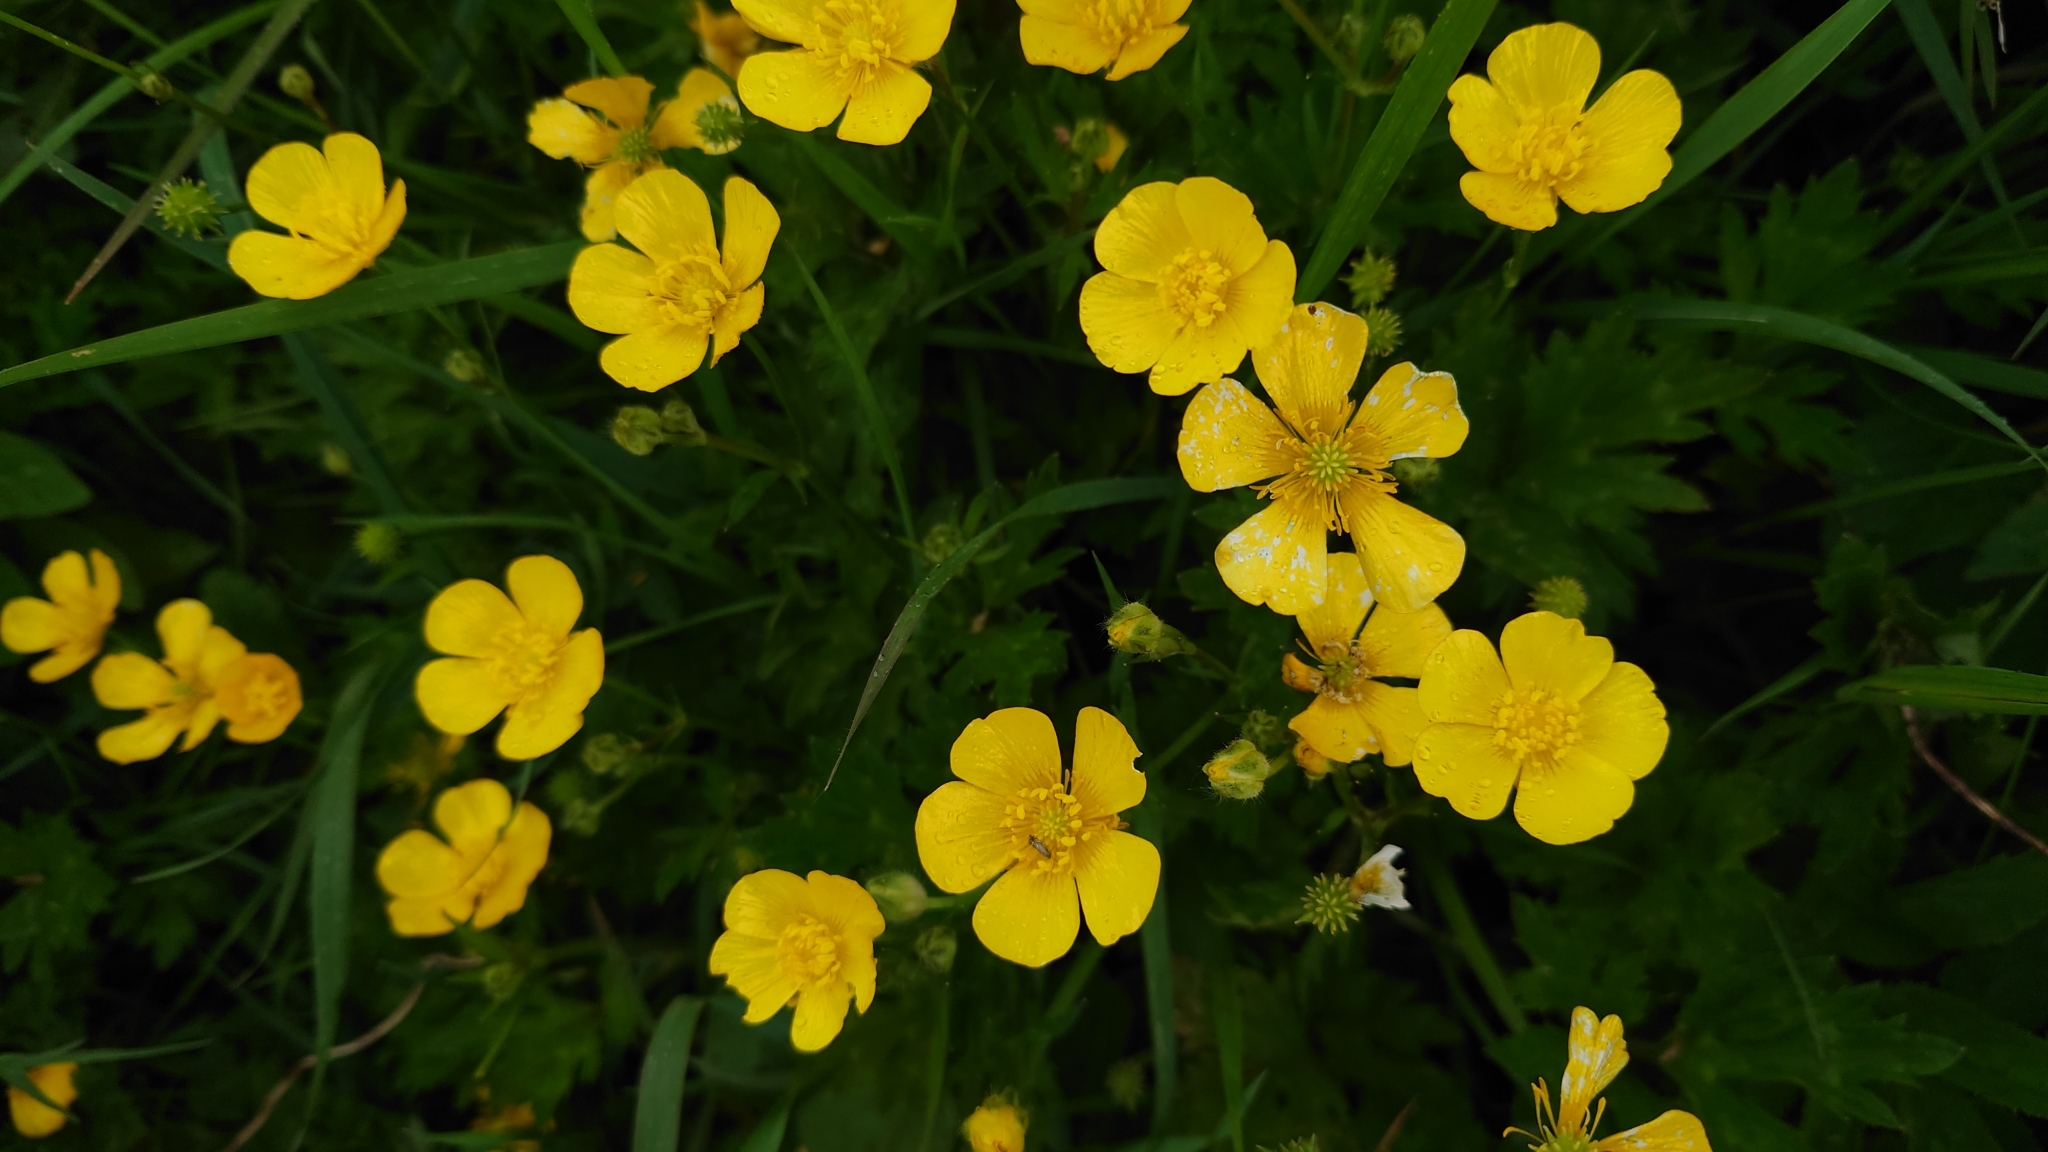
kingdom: Plantae
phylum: Tracheophyta
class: Magnoliopsida
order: Ranunculales
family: Ranunculaceae
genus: Ranunculus
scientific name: Ranunculus acris
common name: Meadow buttercup
